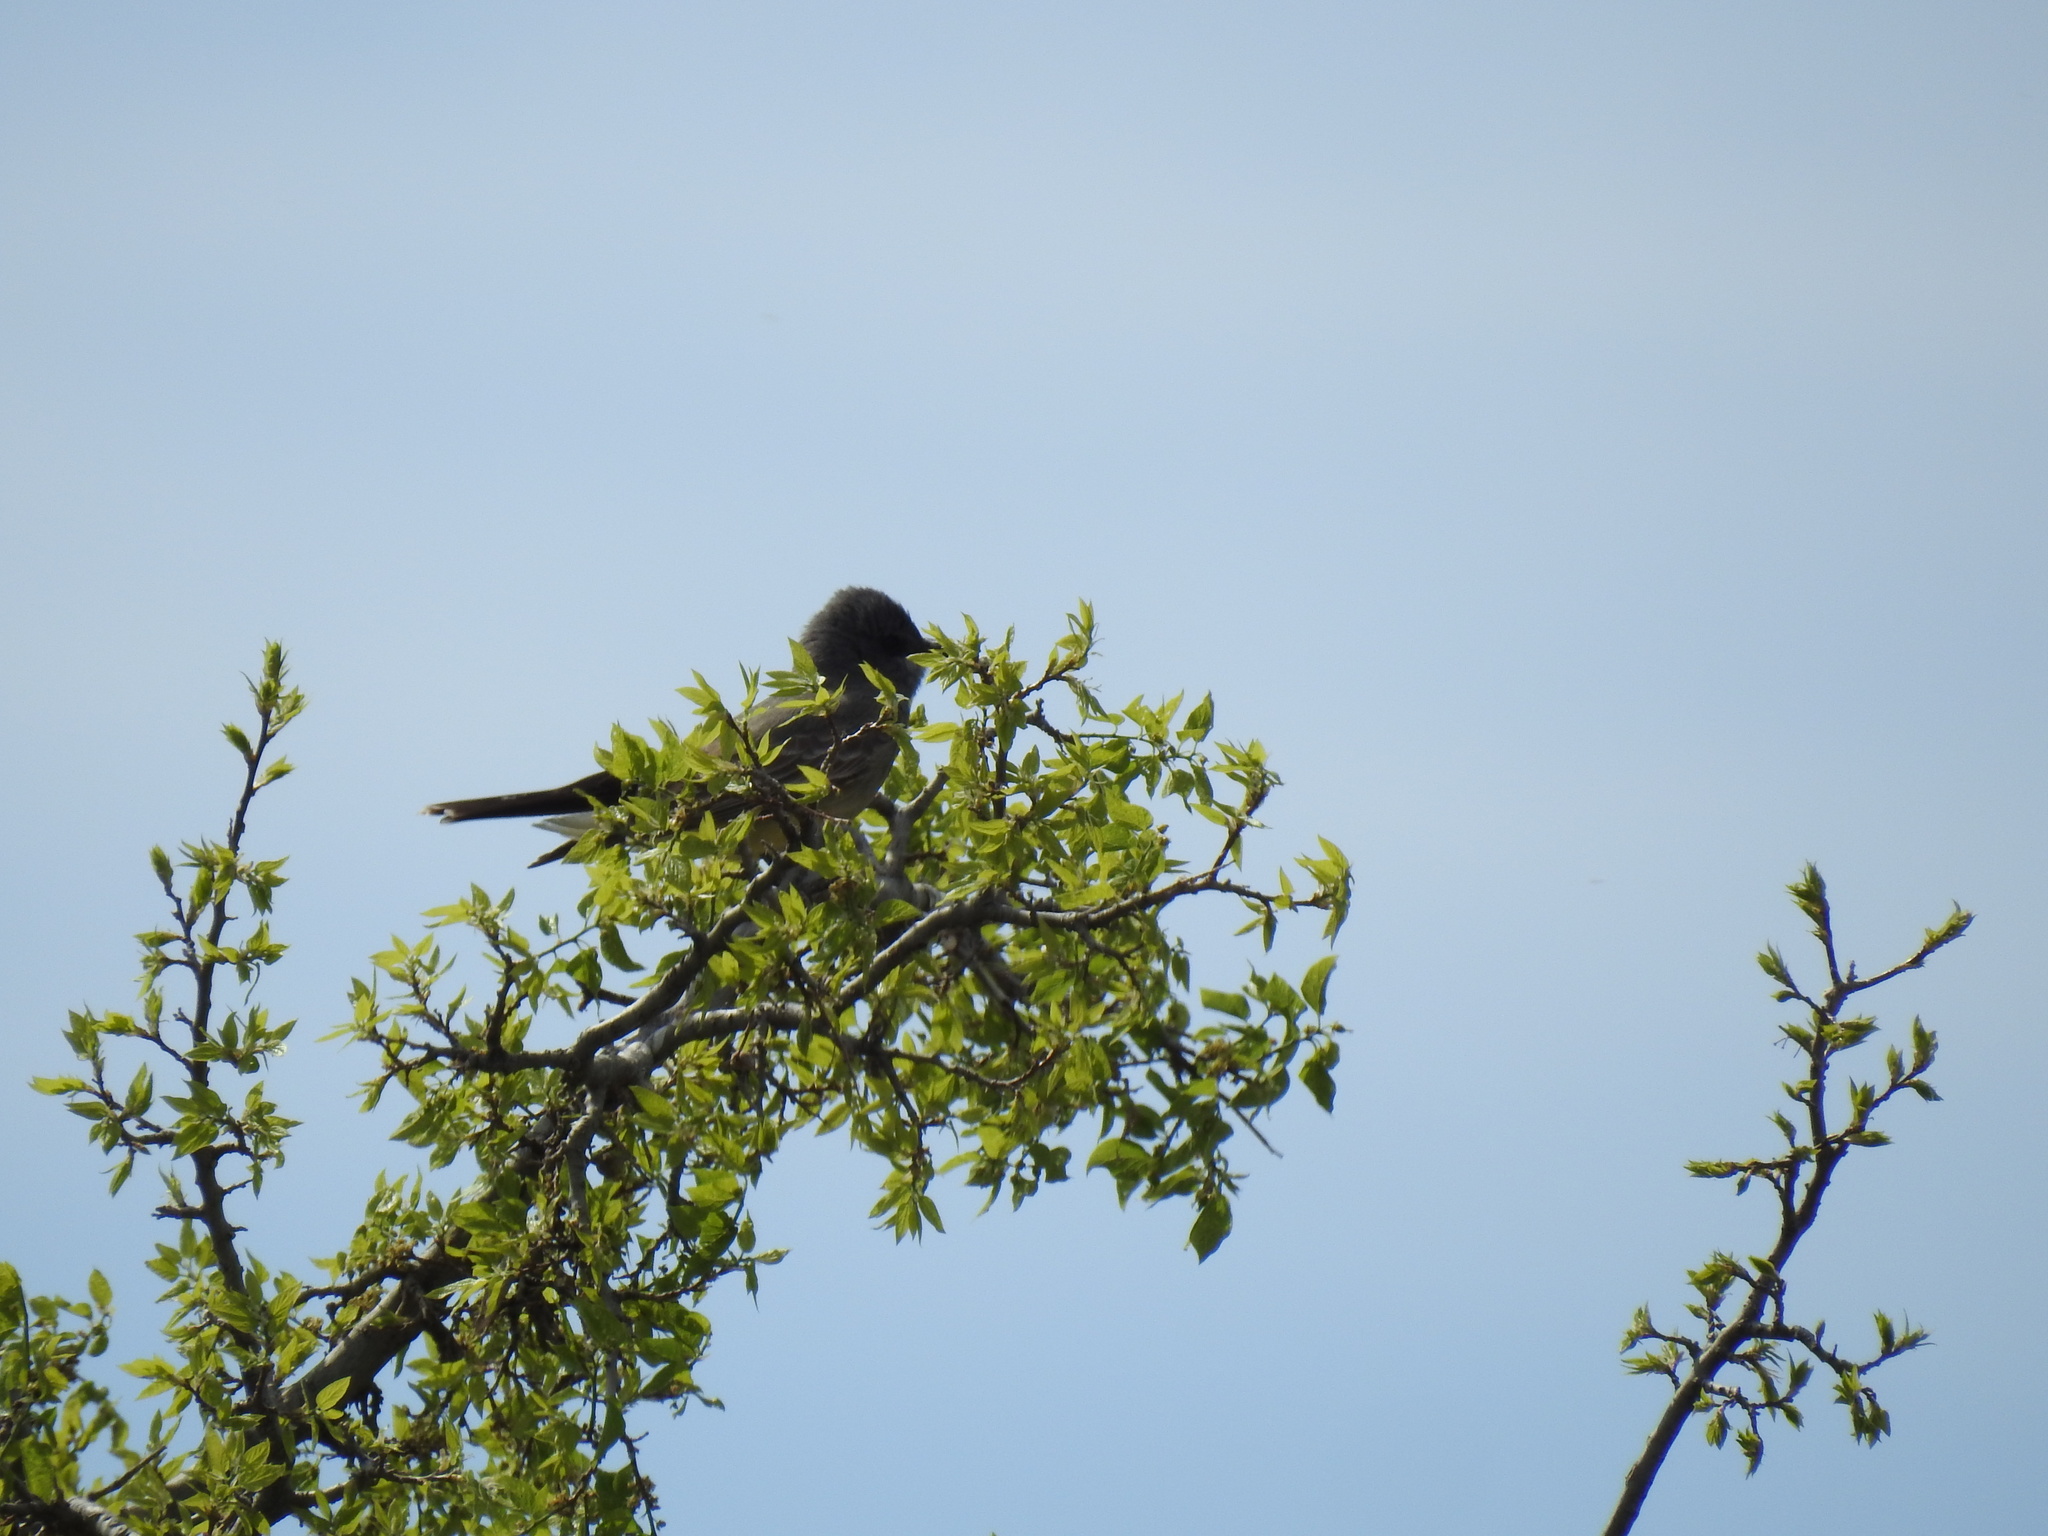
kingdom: Animalia
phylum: Chordata
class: Aves
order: Passeriformes
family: Tyrannidae
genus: Tyrannus
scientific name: Tyrannus vociferans
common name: Cassin's kingbird
